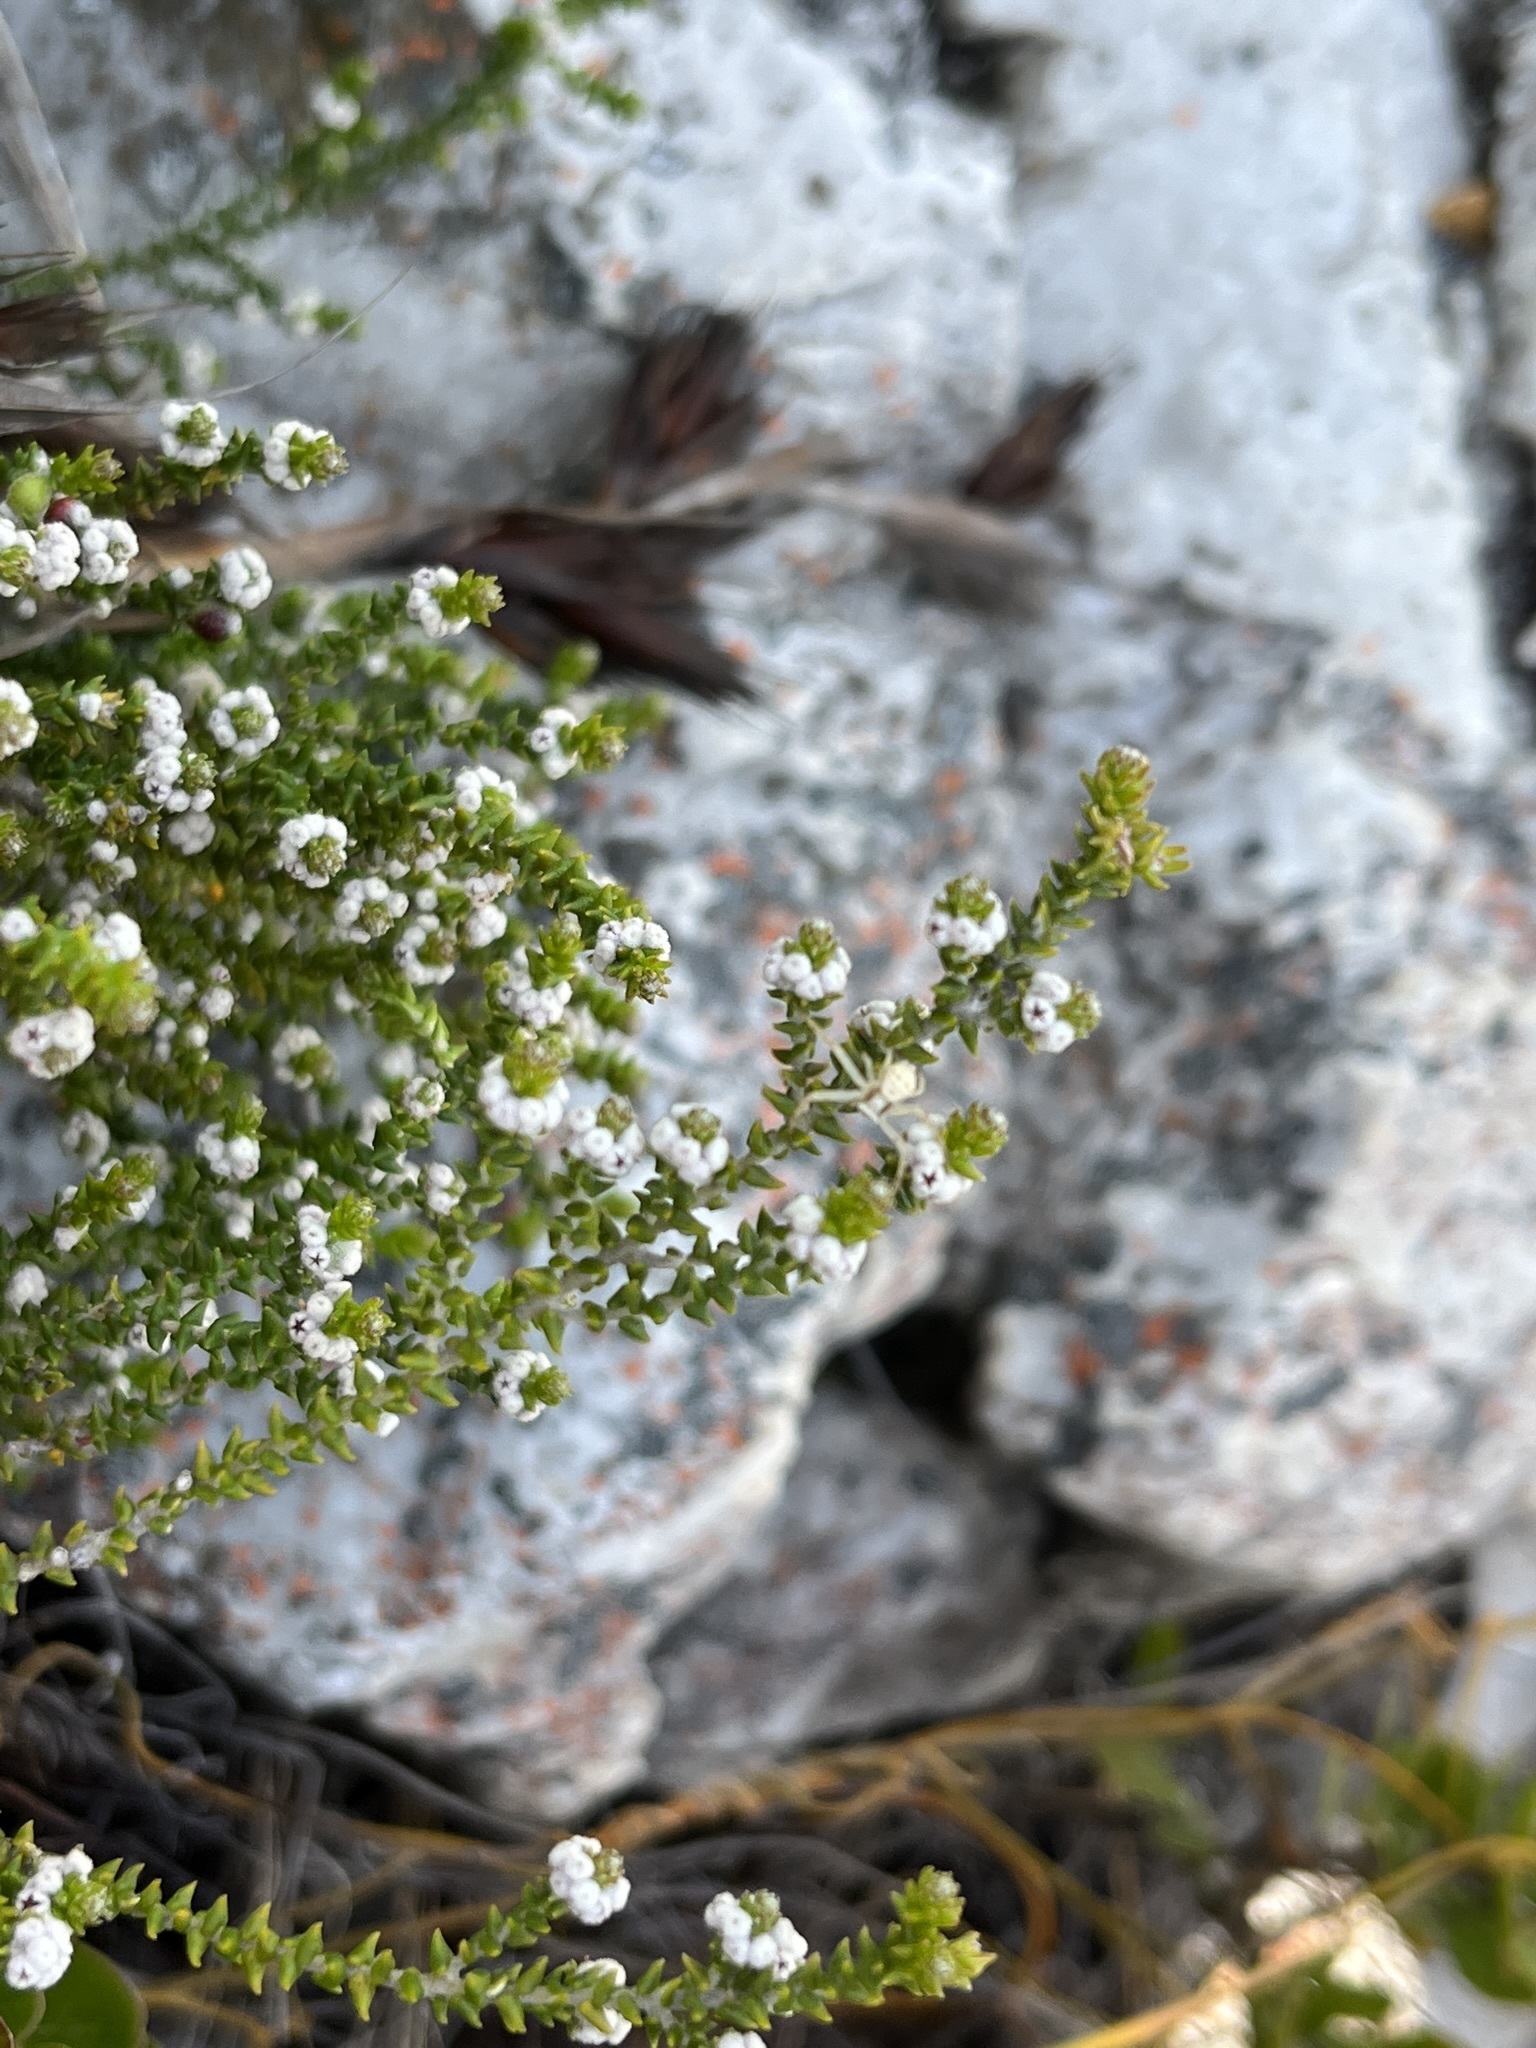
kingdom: Plantae
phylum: Tracheophyta
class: Magnoliopsida
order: Rosales
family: Rhamnaceae
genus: Phylica
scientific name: Phylica humilis
